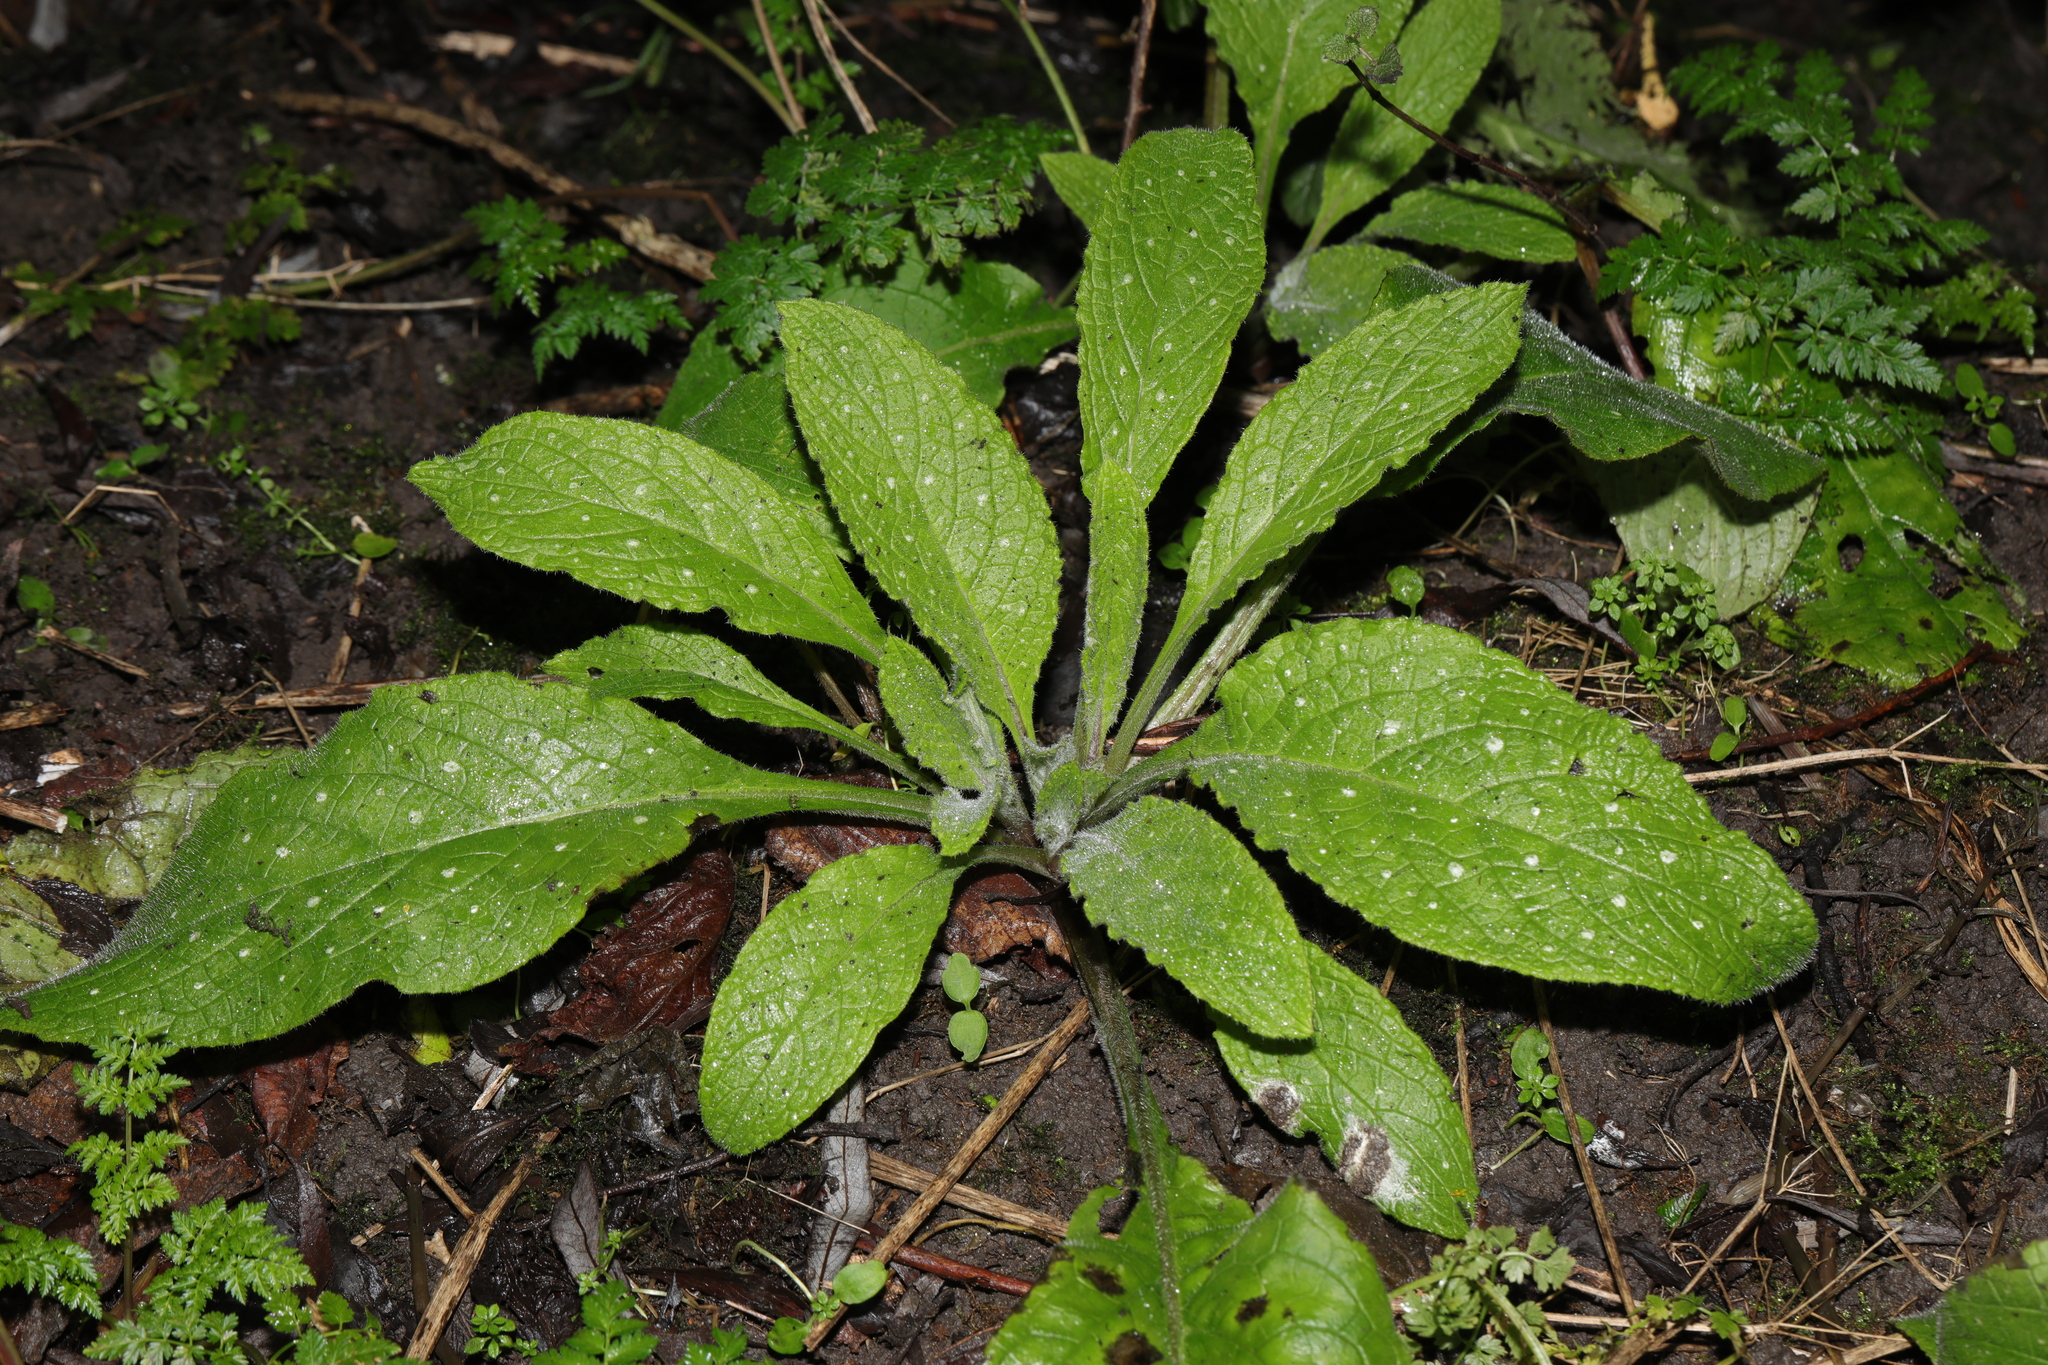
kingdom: Plantae
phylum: Tracheophyta
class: Magnoliopsida
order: Boraginales
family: Boraginaceae
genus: Pentaglottis
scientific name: Pentaglottis sempervirens
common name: Green alkanet
